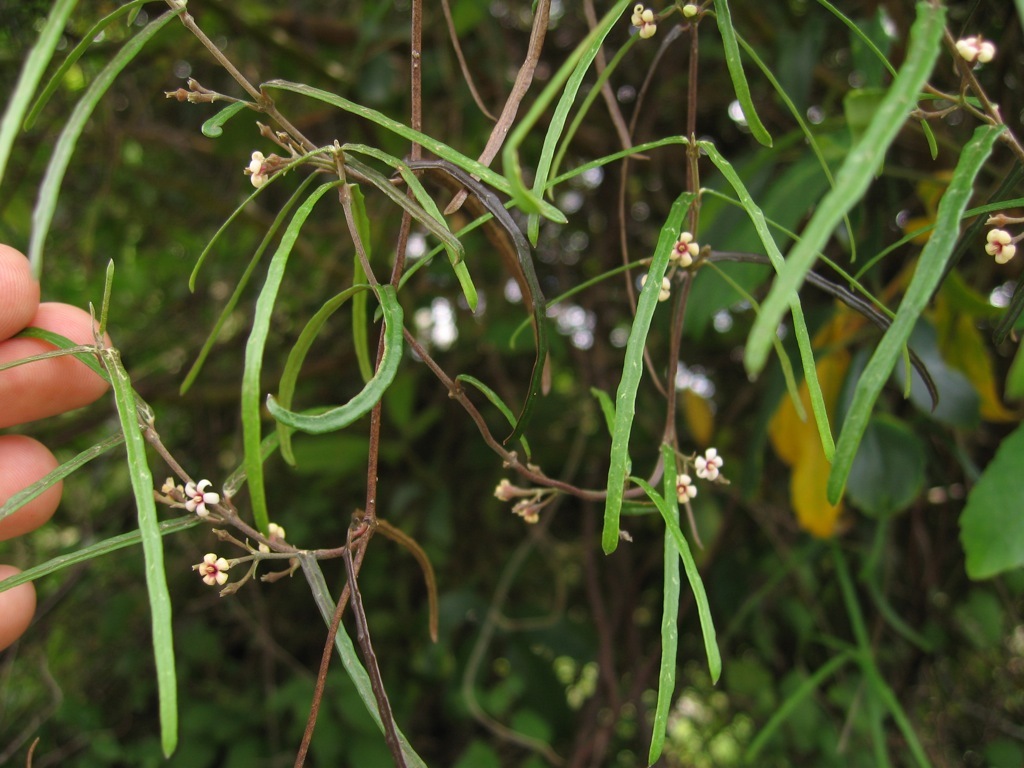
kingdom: Plantae
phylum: Tracheophyta
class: Magnoliopsida
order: Gentianales
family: Apocynaceae
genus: Parsonsia
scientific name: Parsonsia heterophylla
